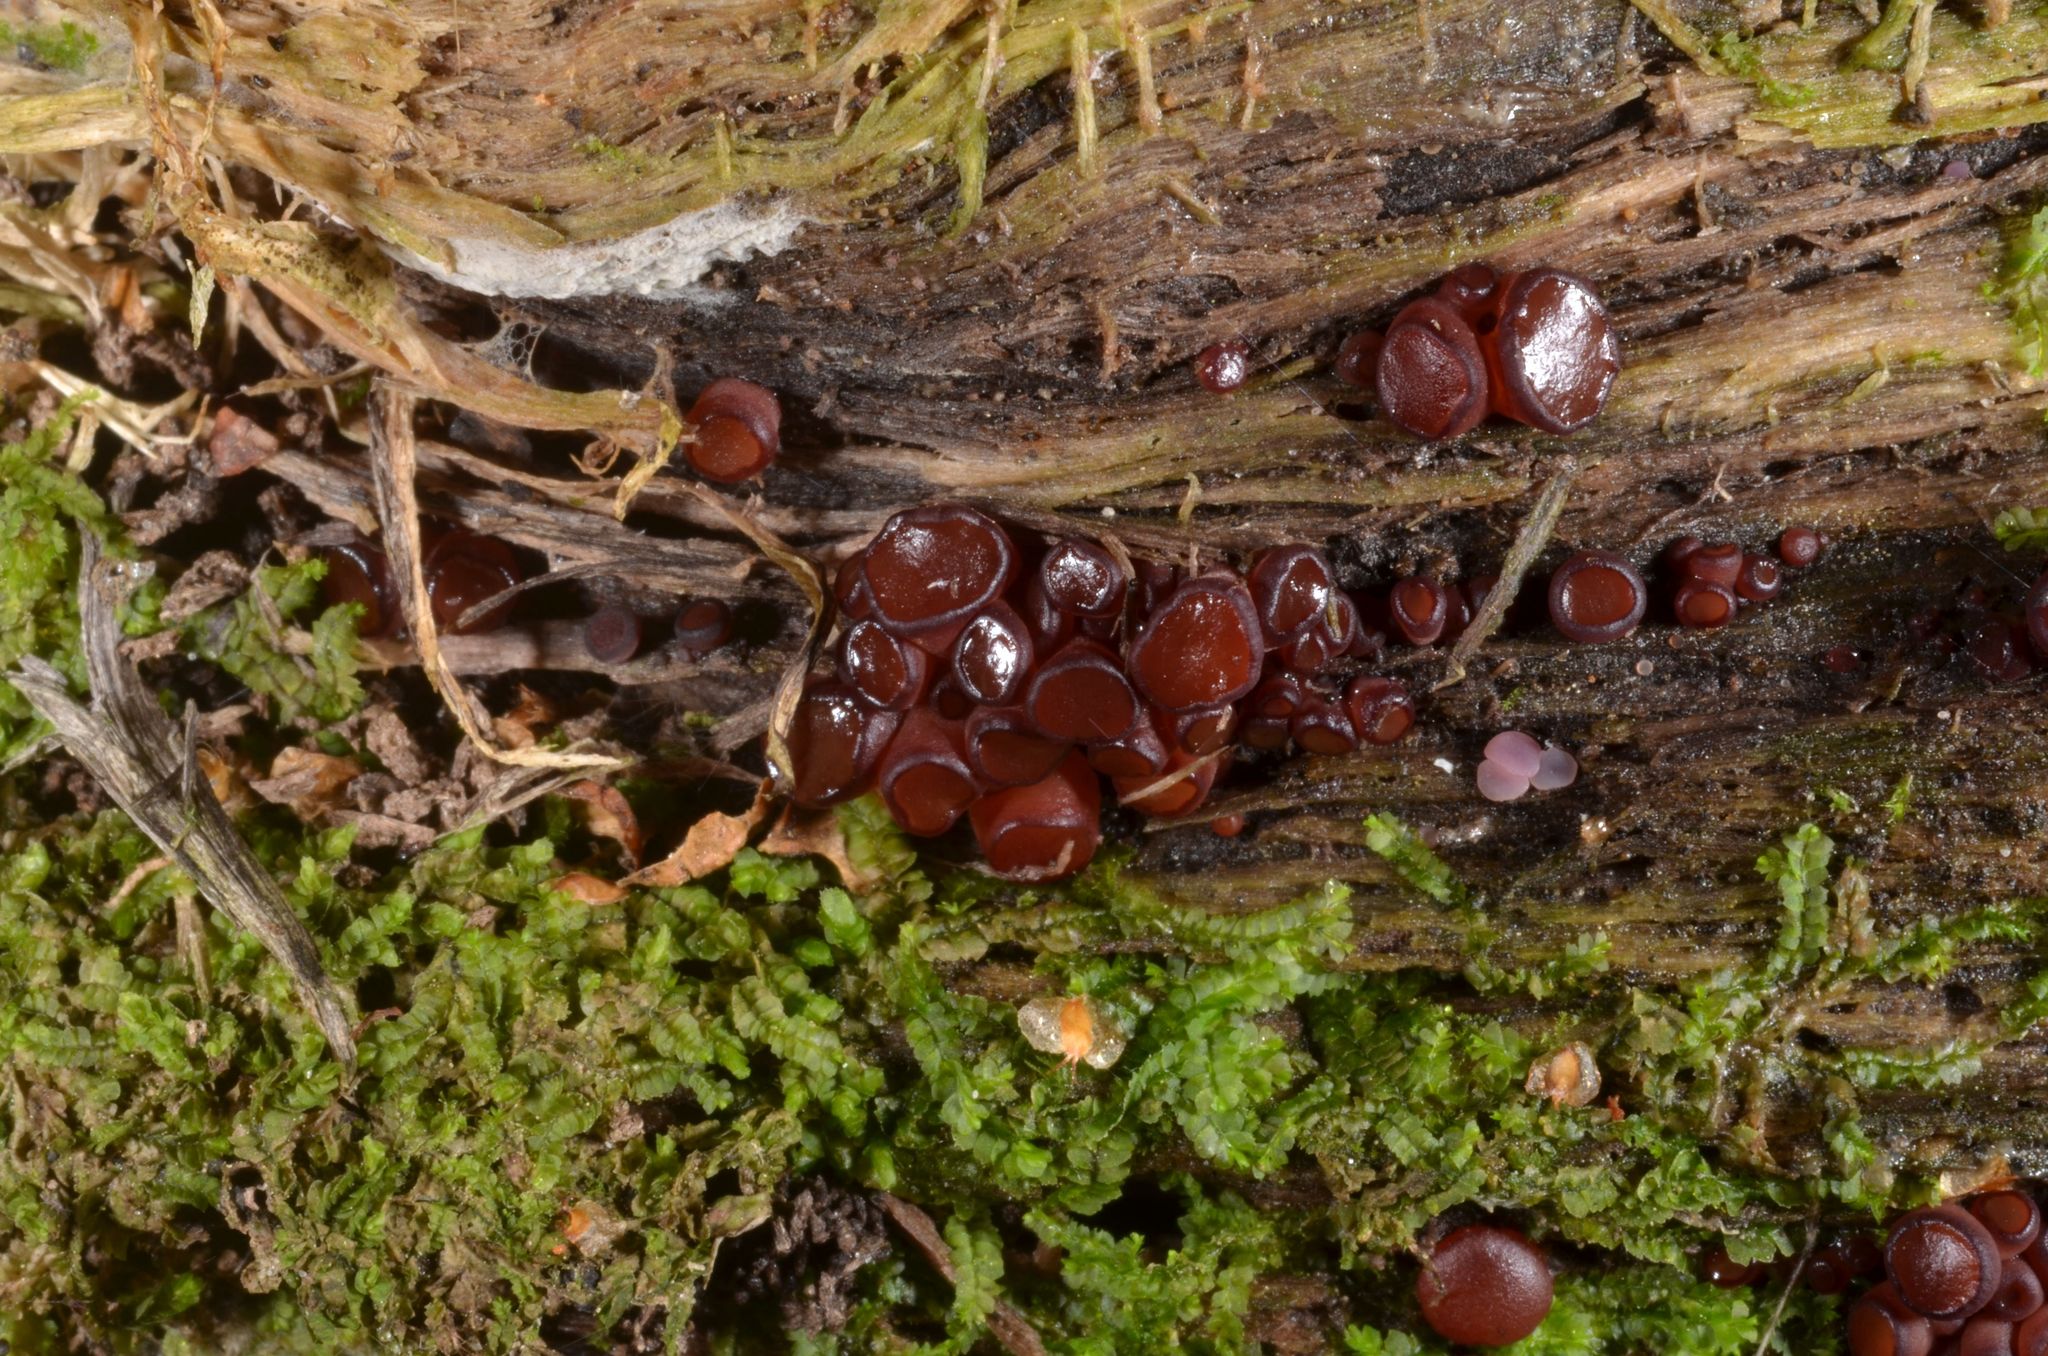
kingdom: Fungi
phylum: Ascomycota
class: Leotiomycetes
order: Helotiales
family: Gelatinodiscaceae
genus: Ascocoryne
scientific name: Ascocoryne cylichnium
